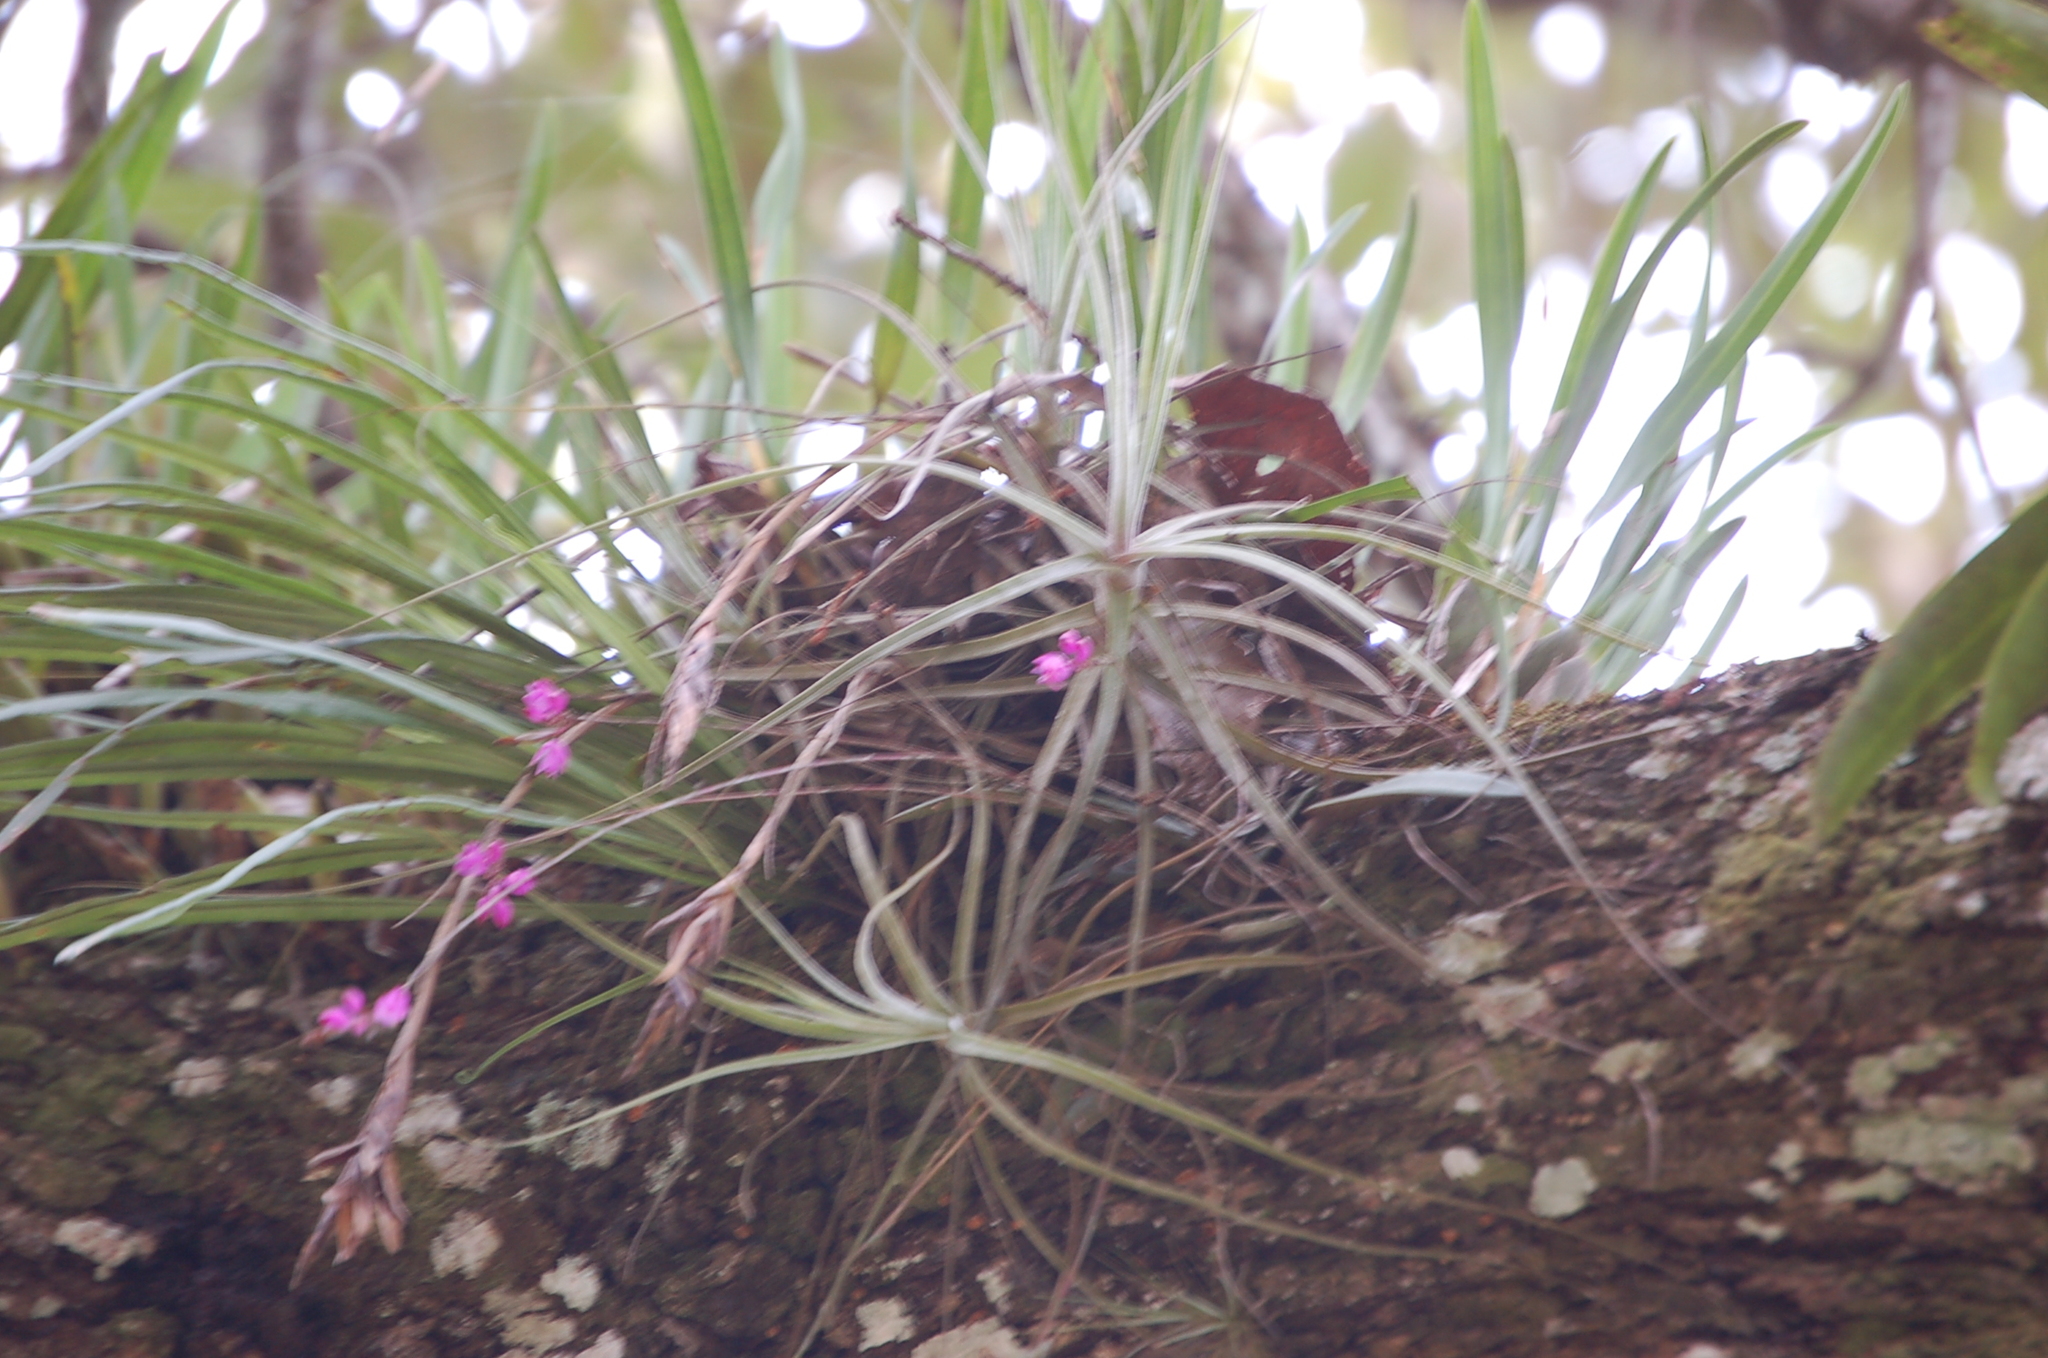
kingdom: Plantae
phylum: Tracheophyta
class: Liliopsida
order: Asparagales
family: Orchidaceae
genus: Domingoa
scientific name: Domingoa purpurea
